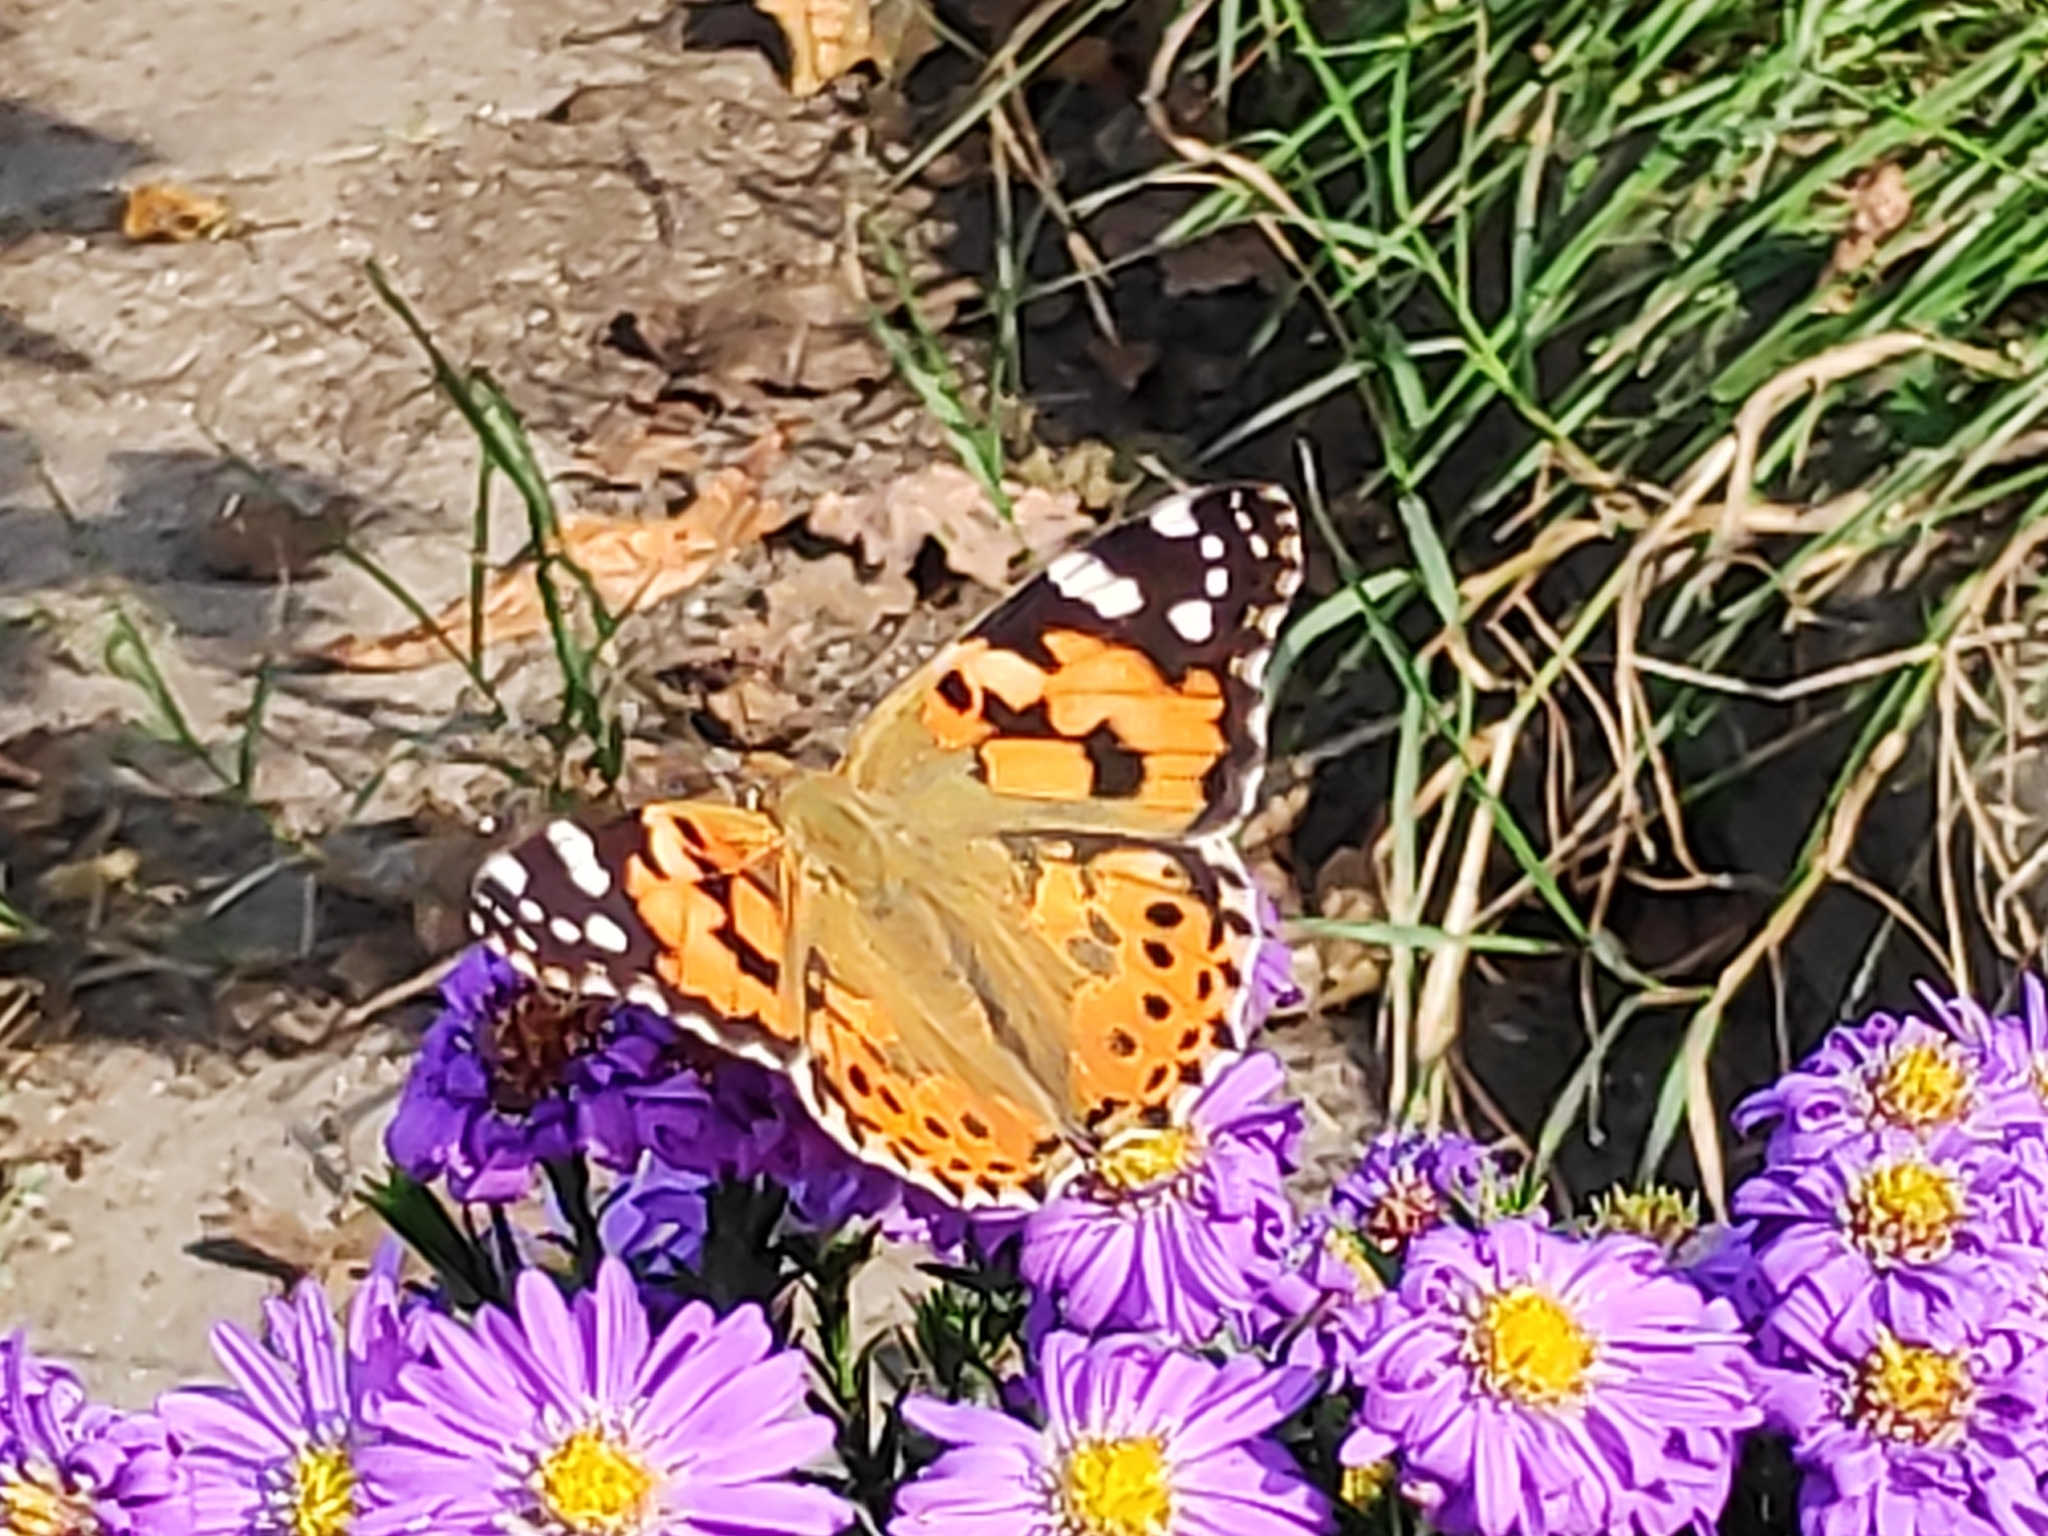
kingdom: Animalia
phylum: Arthropoda
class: Insecta
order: Lepidoptera
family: Nymphalidae
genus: Vanessa
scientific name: Vanessa cardui
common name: Painted lady
